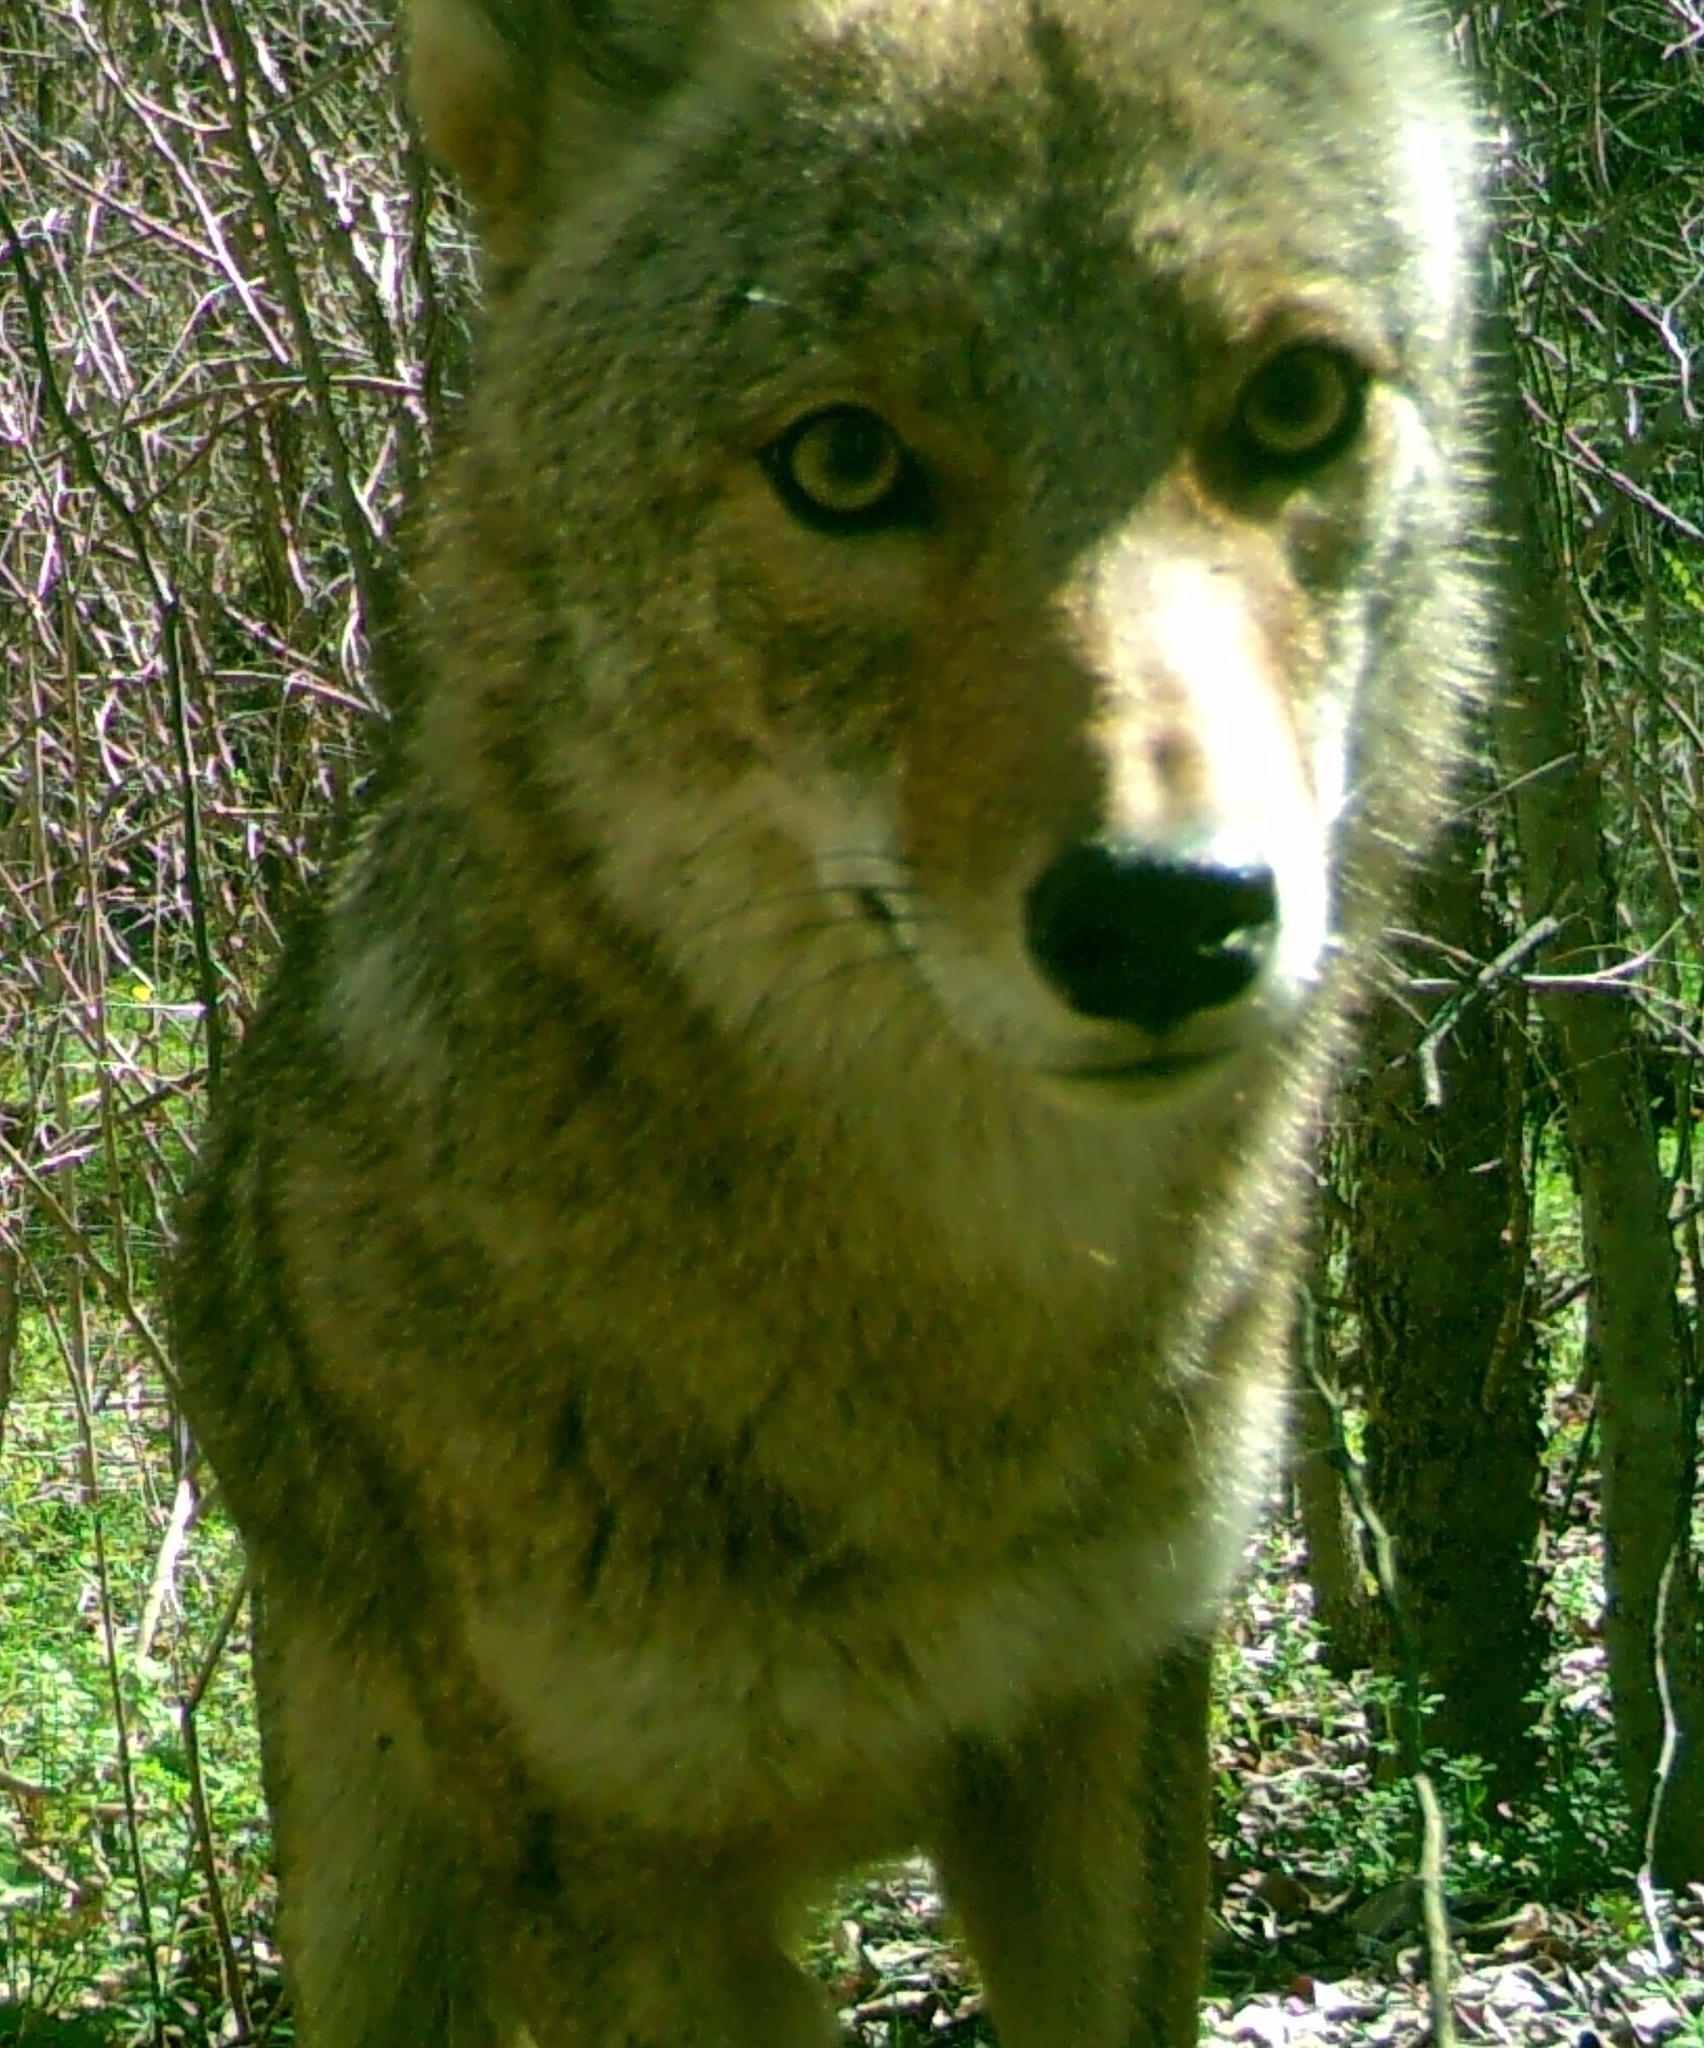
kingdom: Animalia
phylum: Chordata
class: Mammalia
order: Carnivora
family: Canidae
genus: Canis
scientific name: Canis latrans
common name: Coyote
